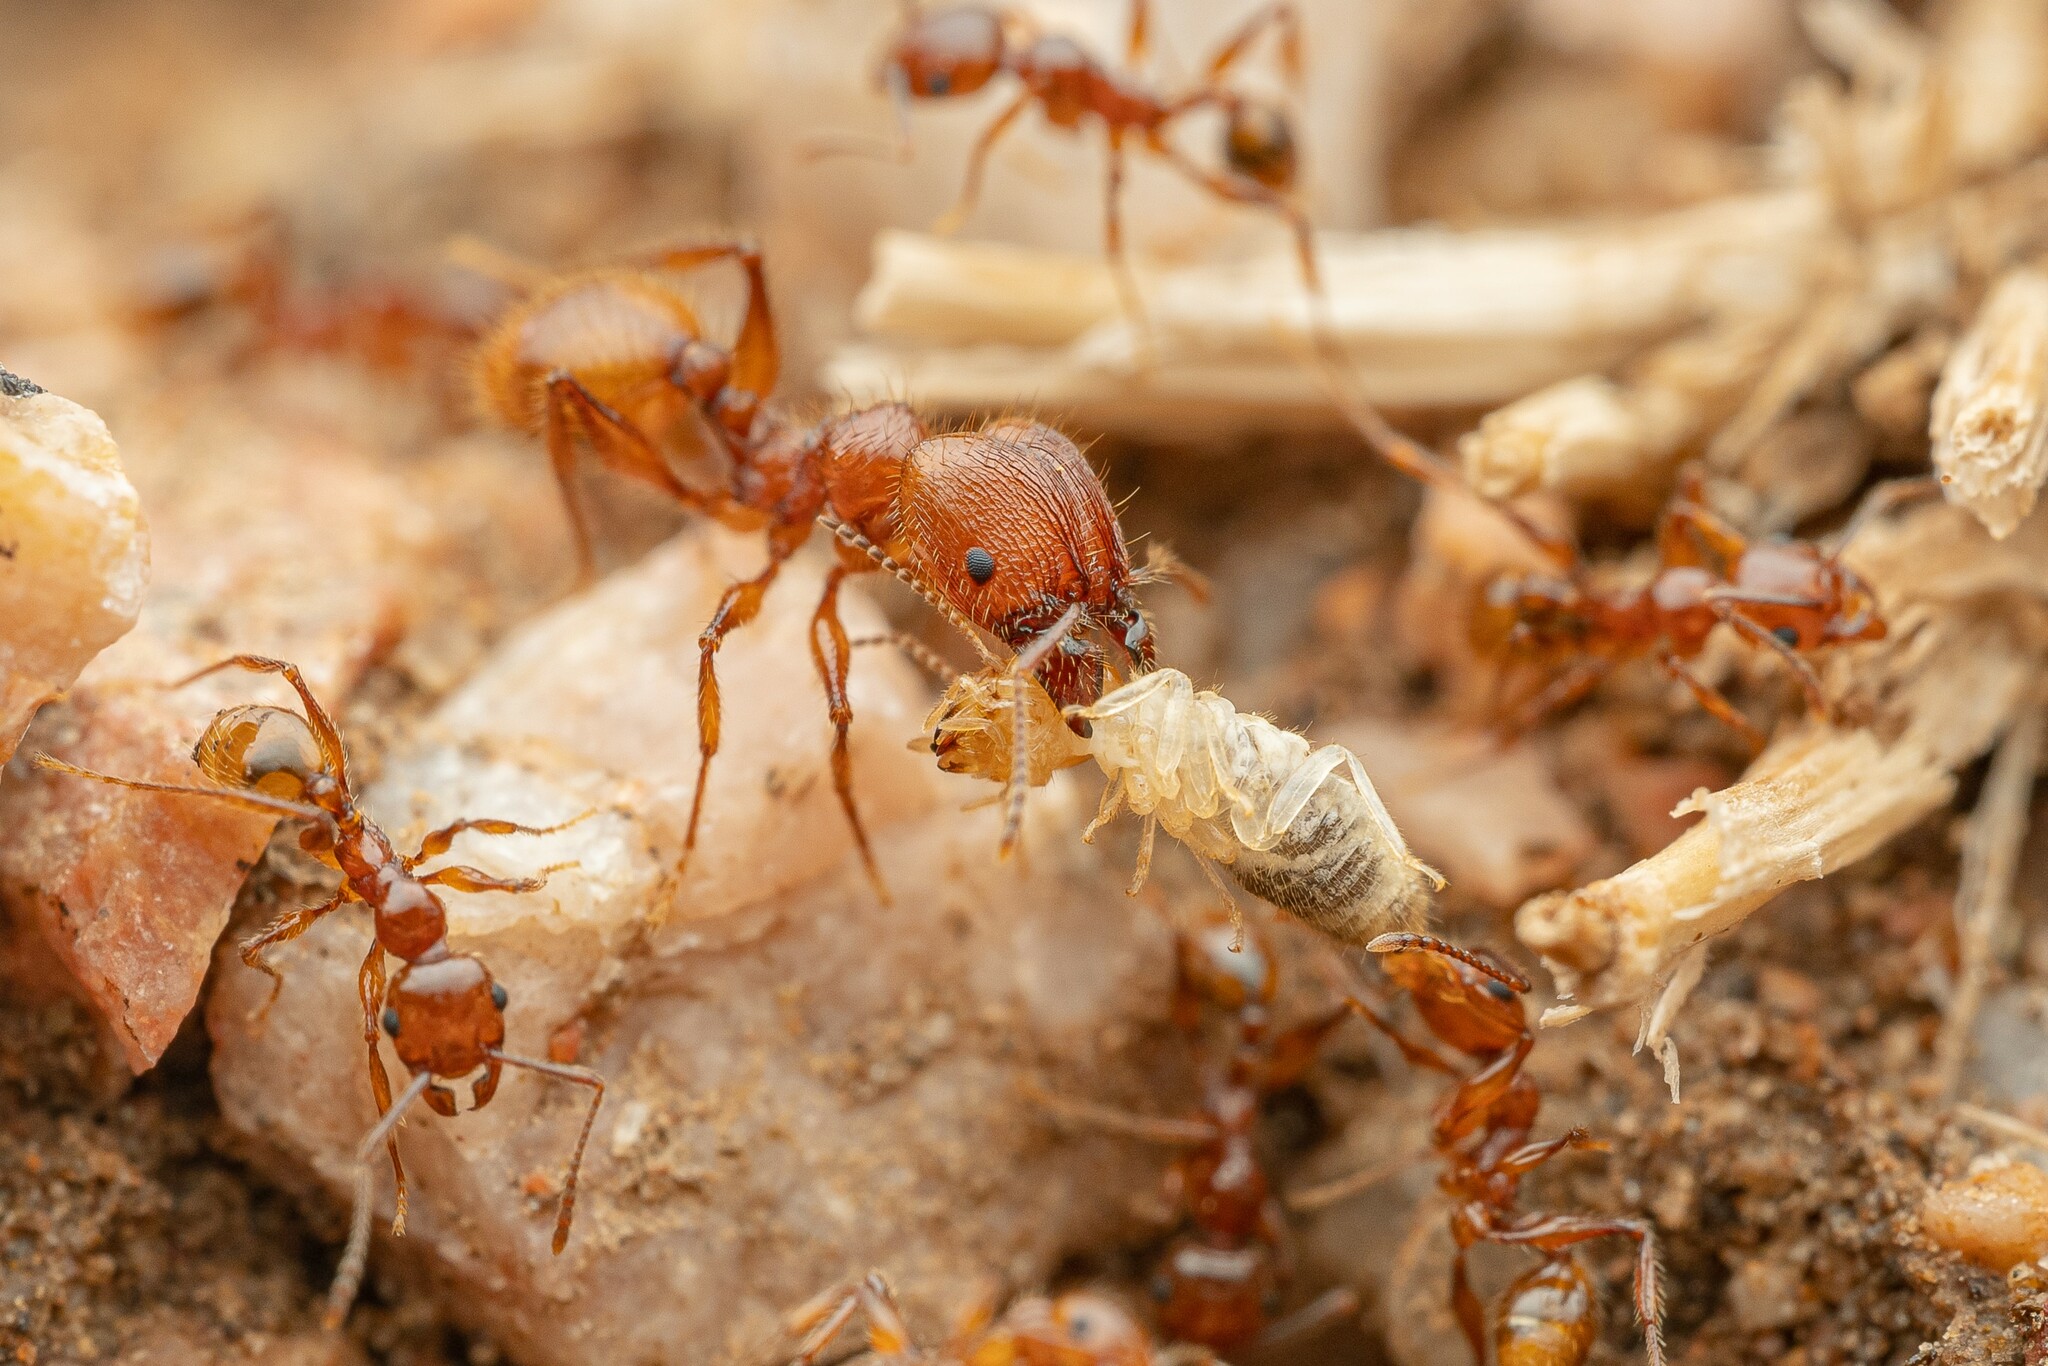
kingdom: Animalia
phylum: Arthropoda
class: Insecta
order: Hymenoptera
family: Formicidae
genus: Pheidole
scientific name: Pheidole titanis
